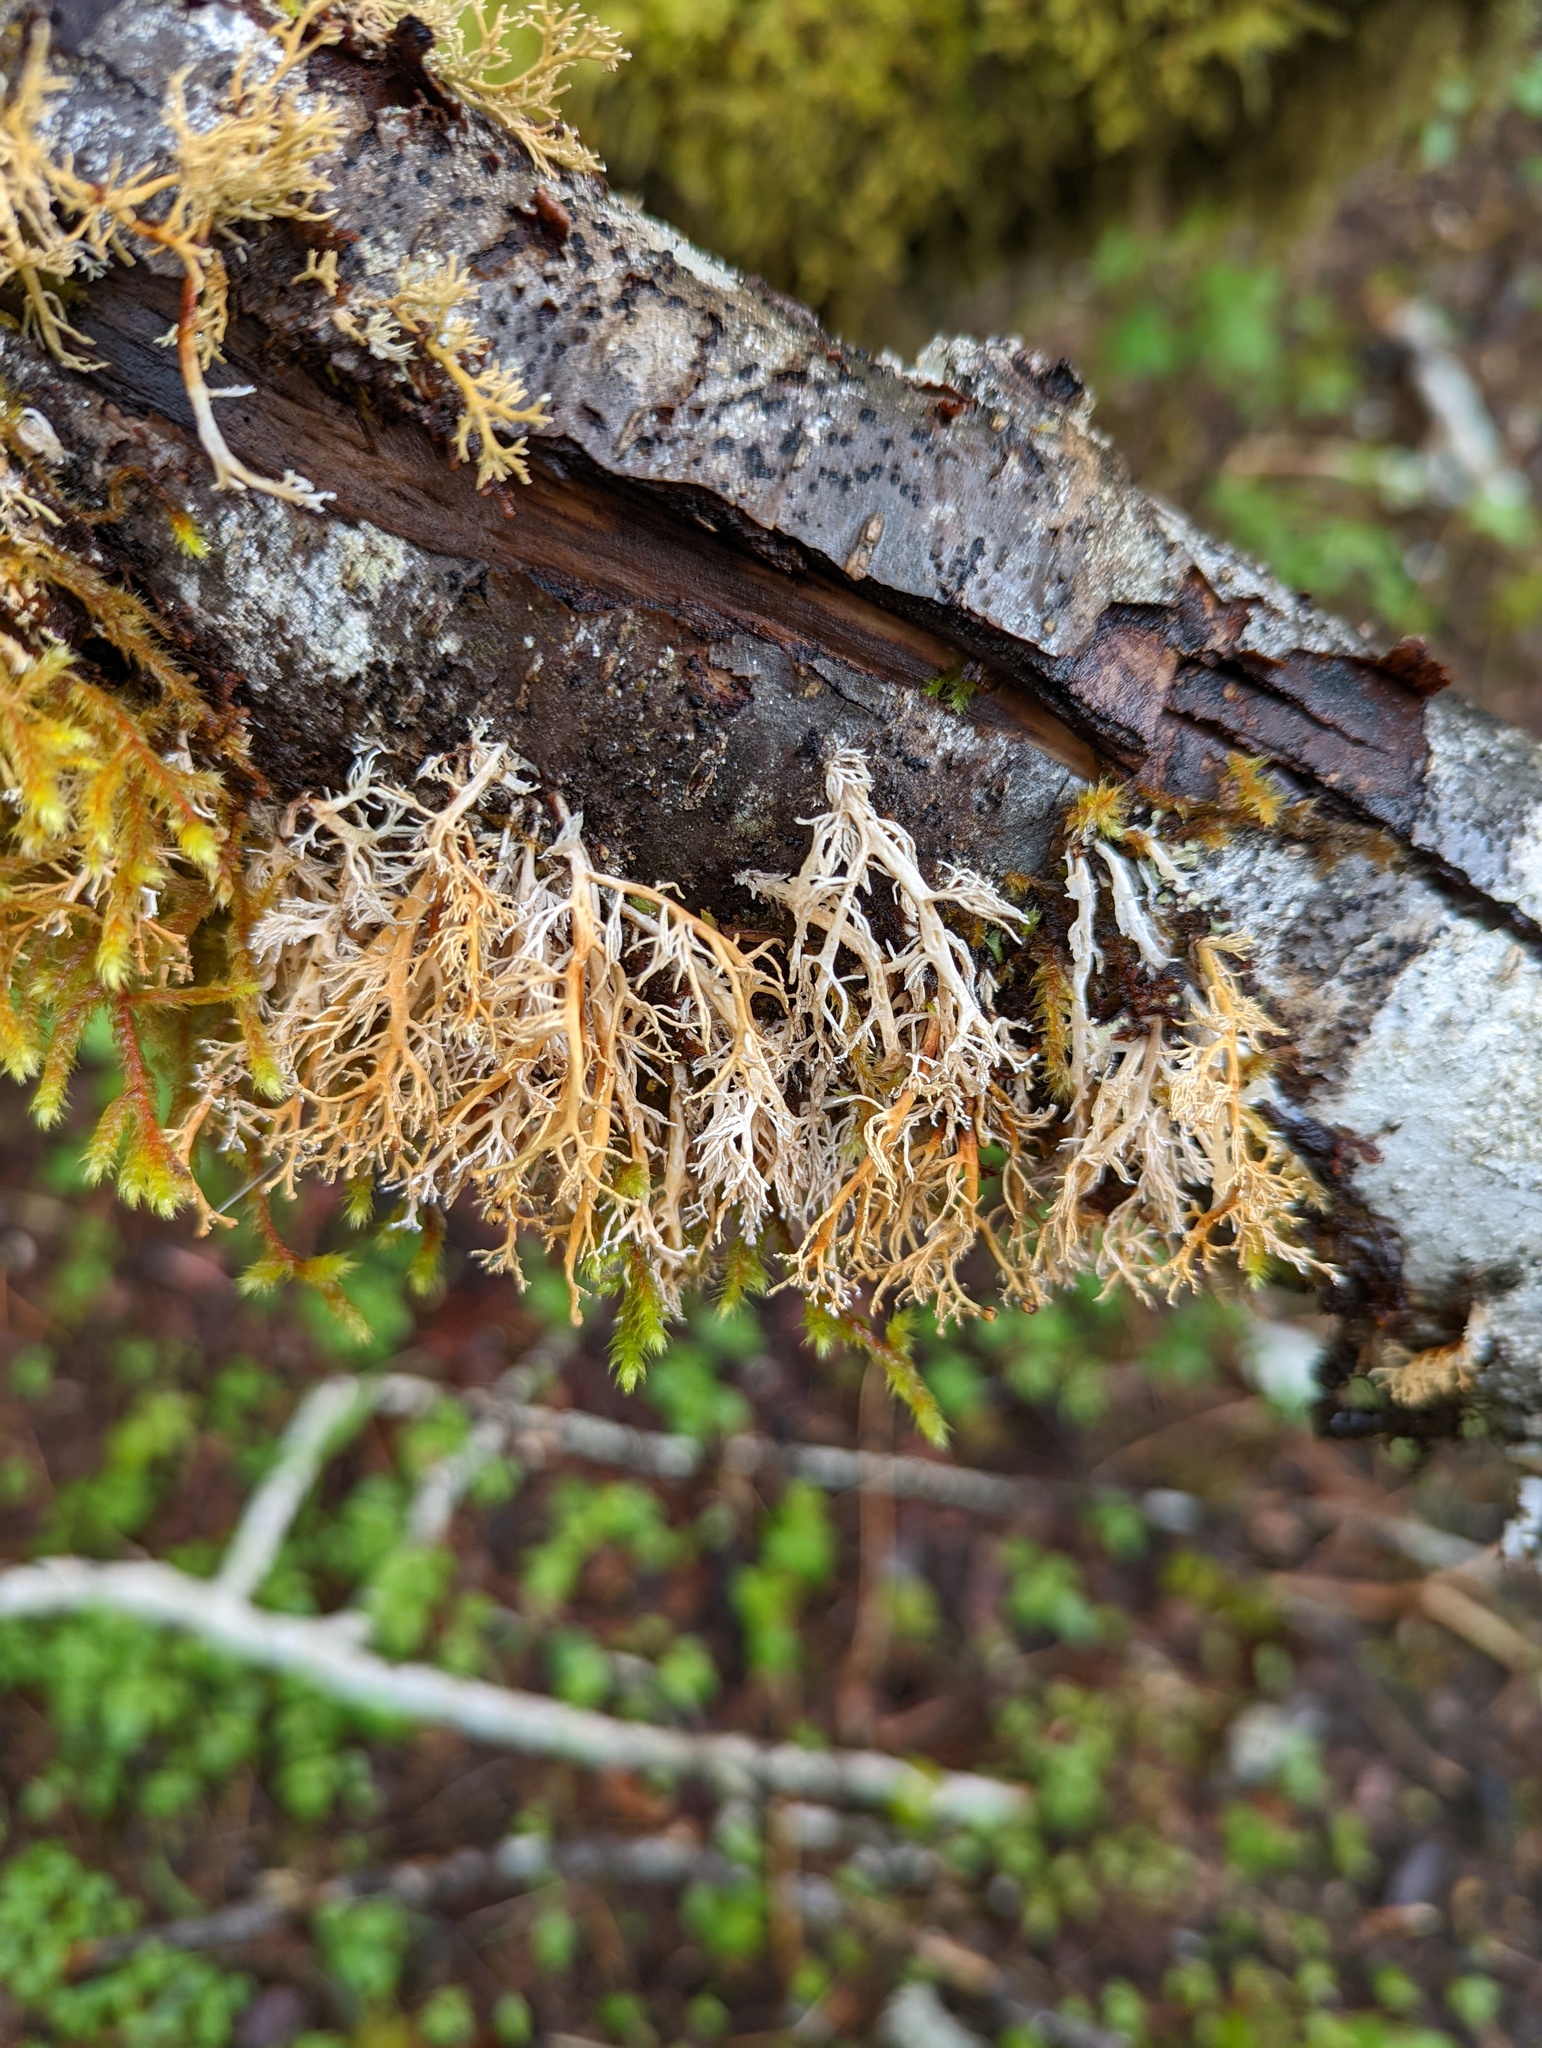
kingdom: Fungi
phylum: Ascomycota
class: Lecanoromycetes
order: Lecanorales
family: Sphaerophoraceae
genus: Sphaerophorus
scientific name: Sphaerophorus venerabilis
